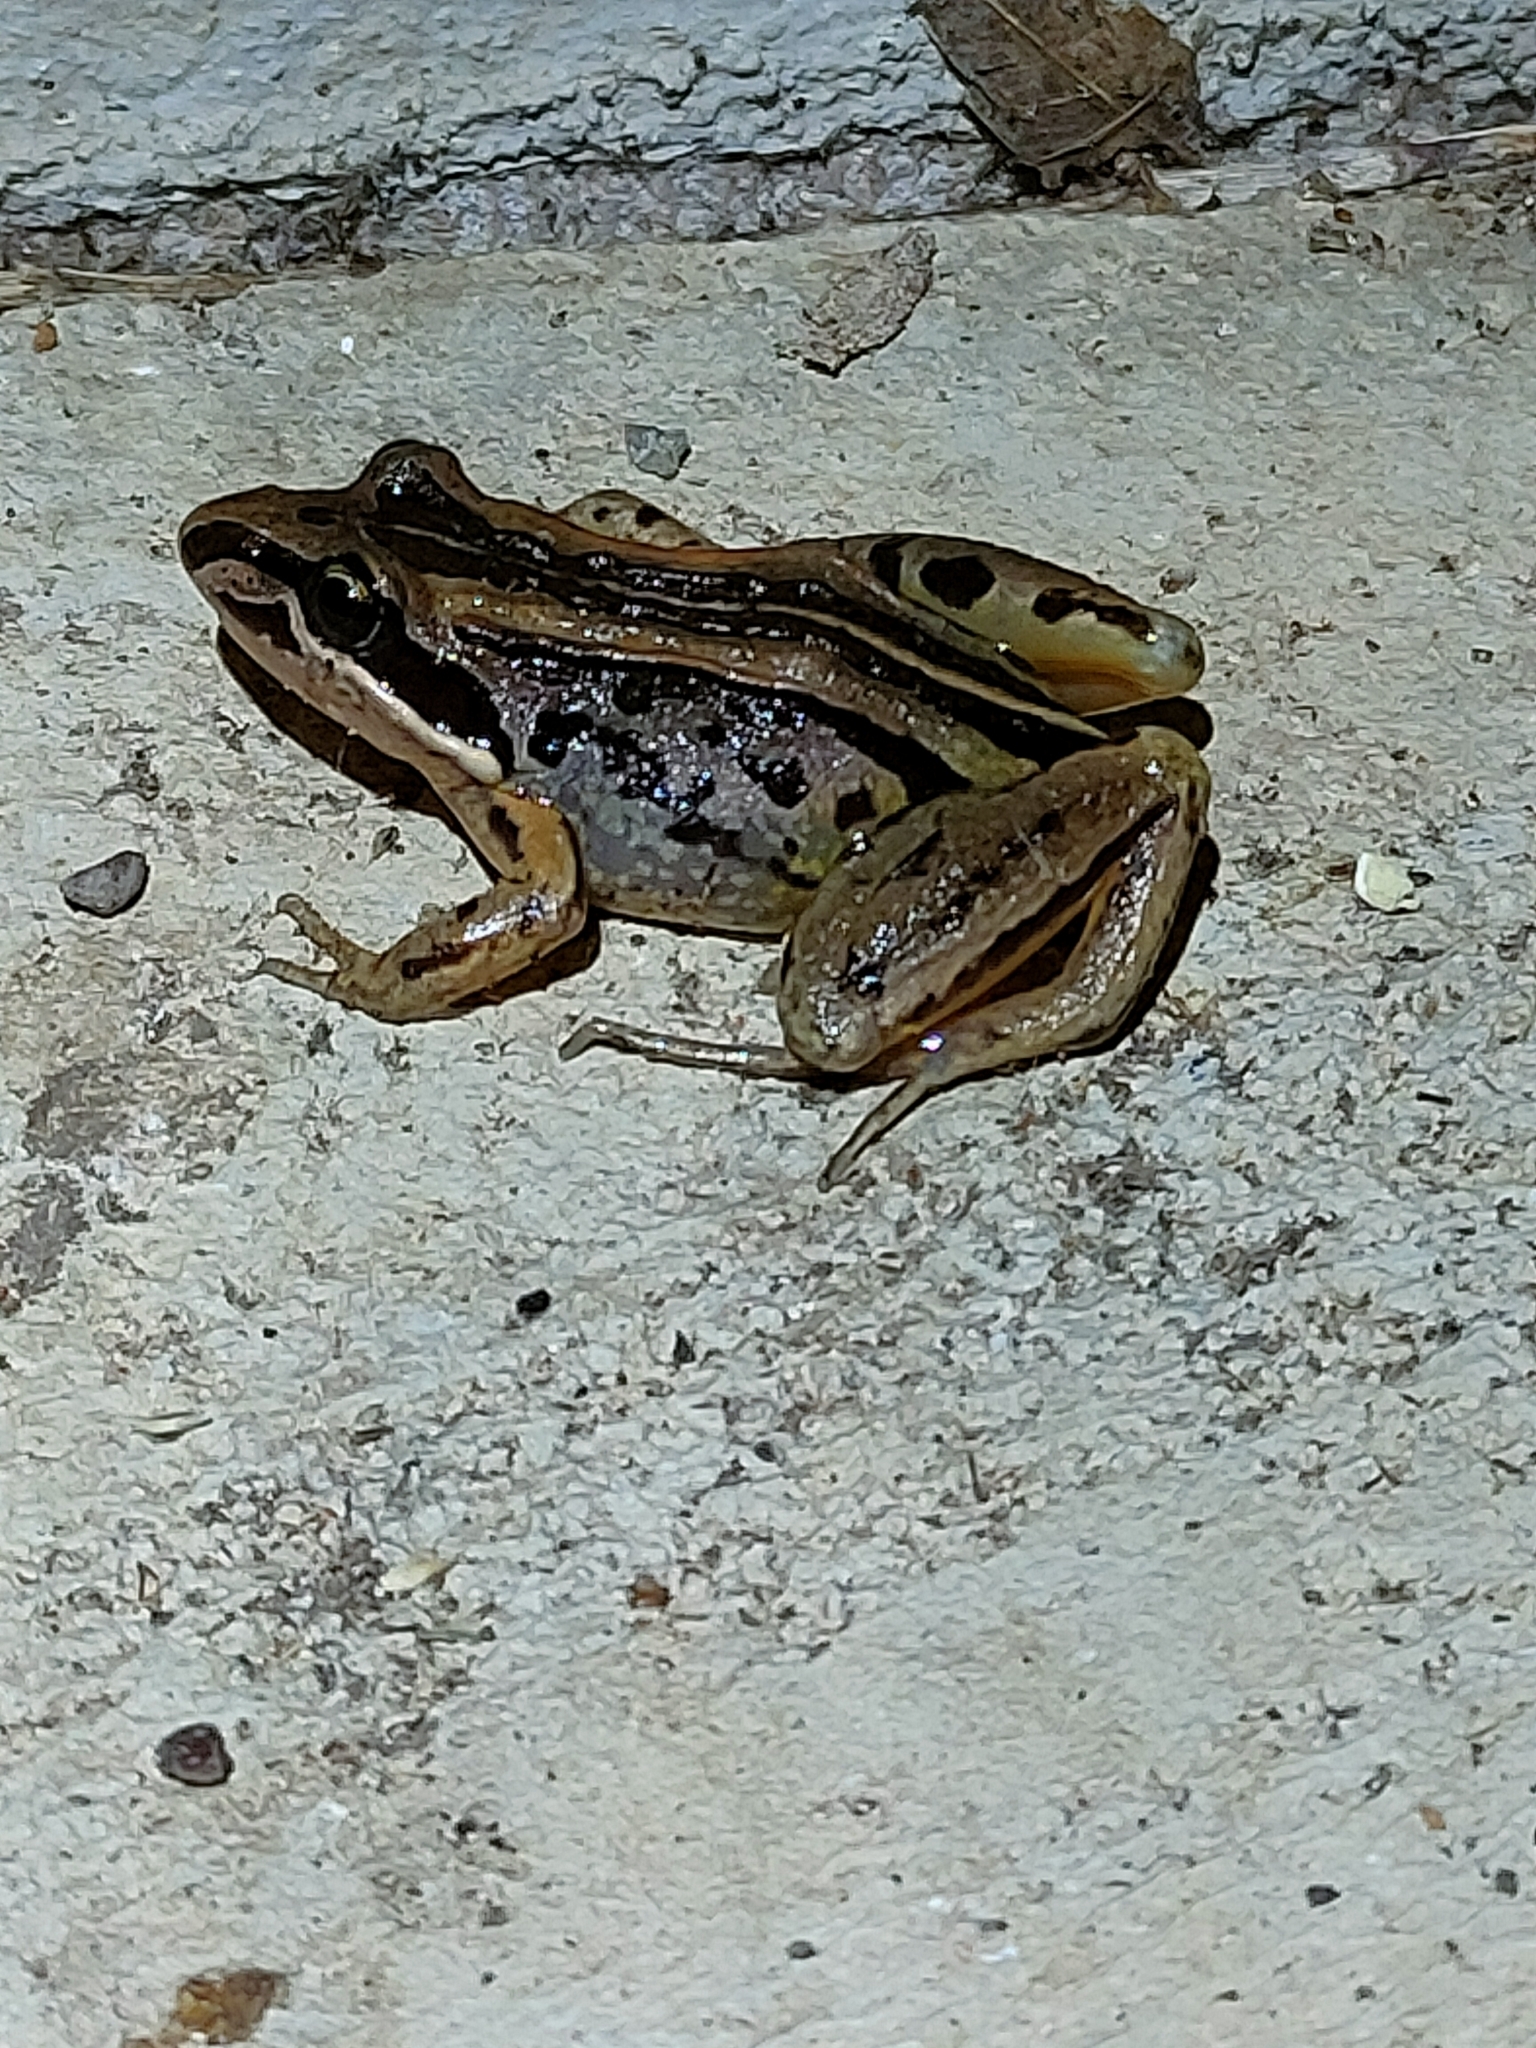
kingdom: Animalia
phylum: Chordata
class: Amphibia
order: Anura
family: Limnodynastidae
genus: Limnodynastes
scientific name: Limnodynastes peronii
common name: Brown frog
